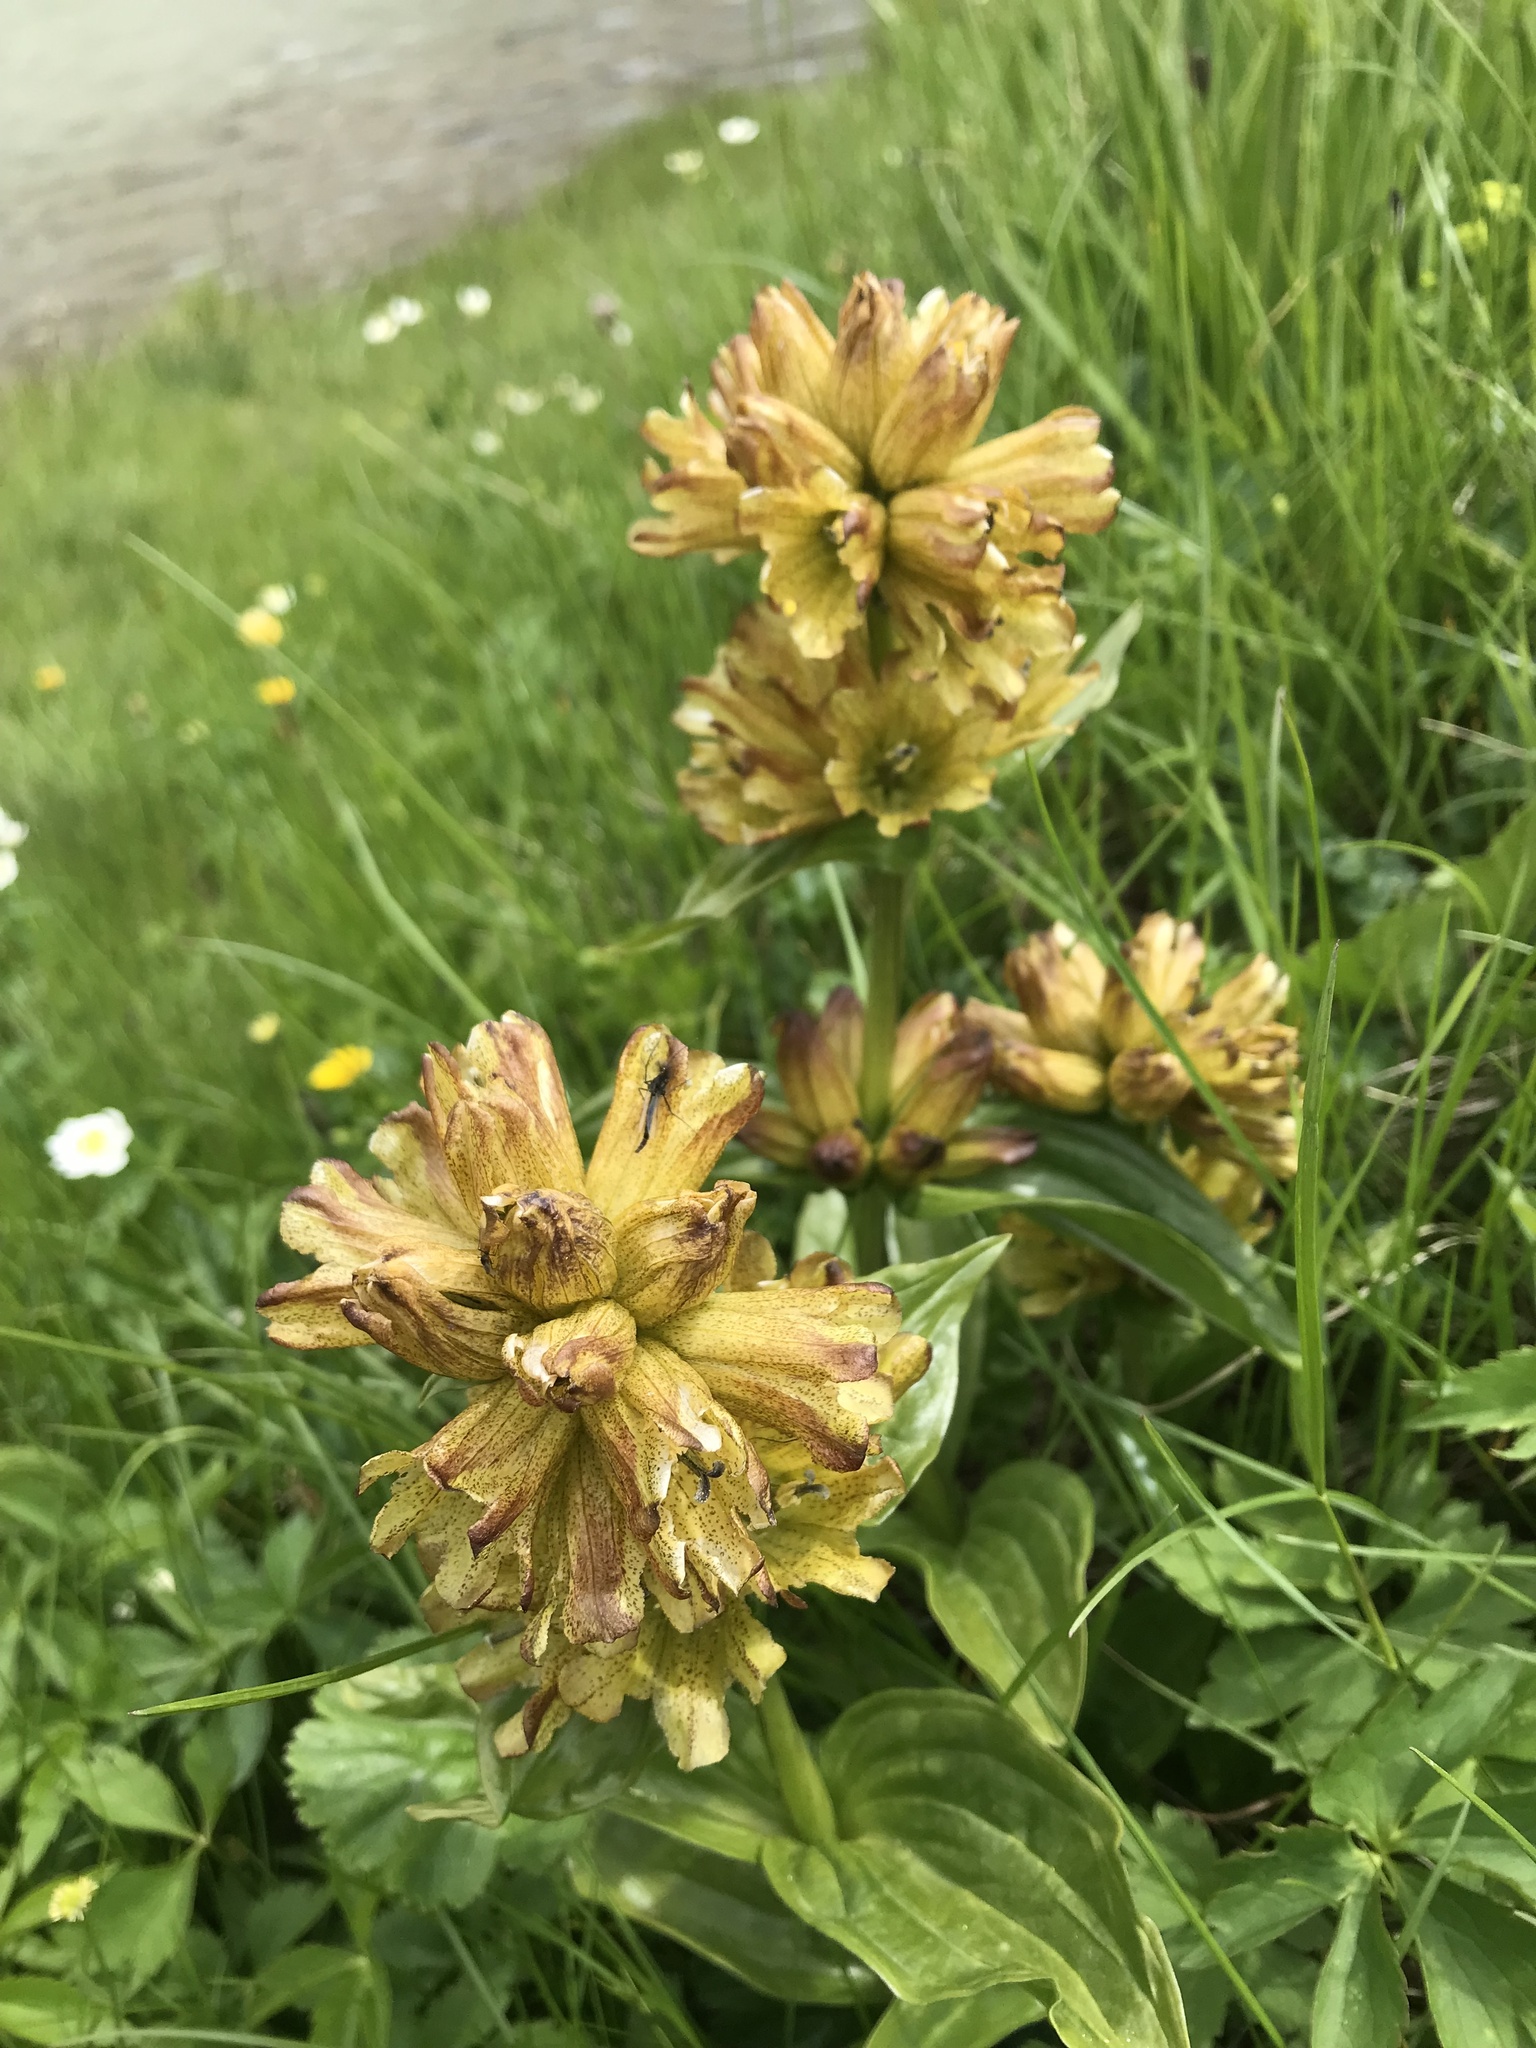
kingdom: Plantae
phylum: Tracheophyta
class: Magnoliopsida
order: Gentianales
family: Gentianaceae
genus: Gentiana
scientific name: Gentiana punctata
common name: Spotted gentian
